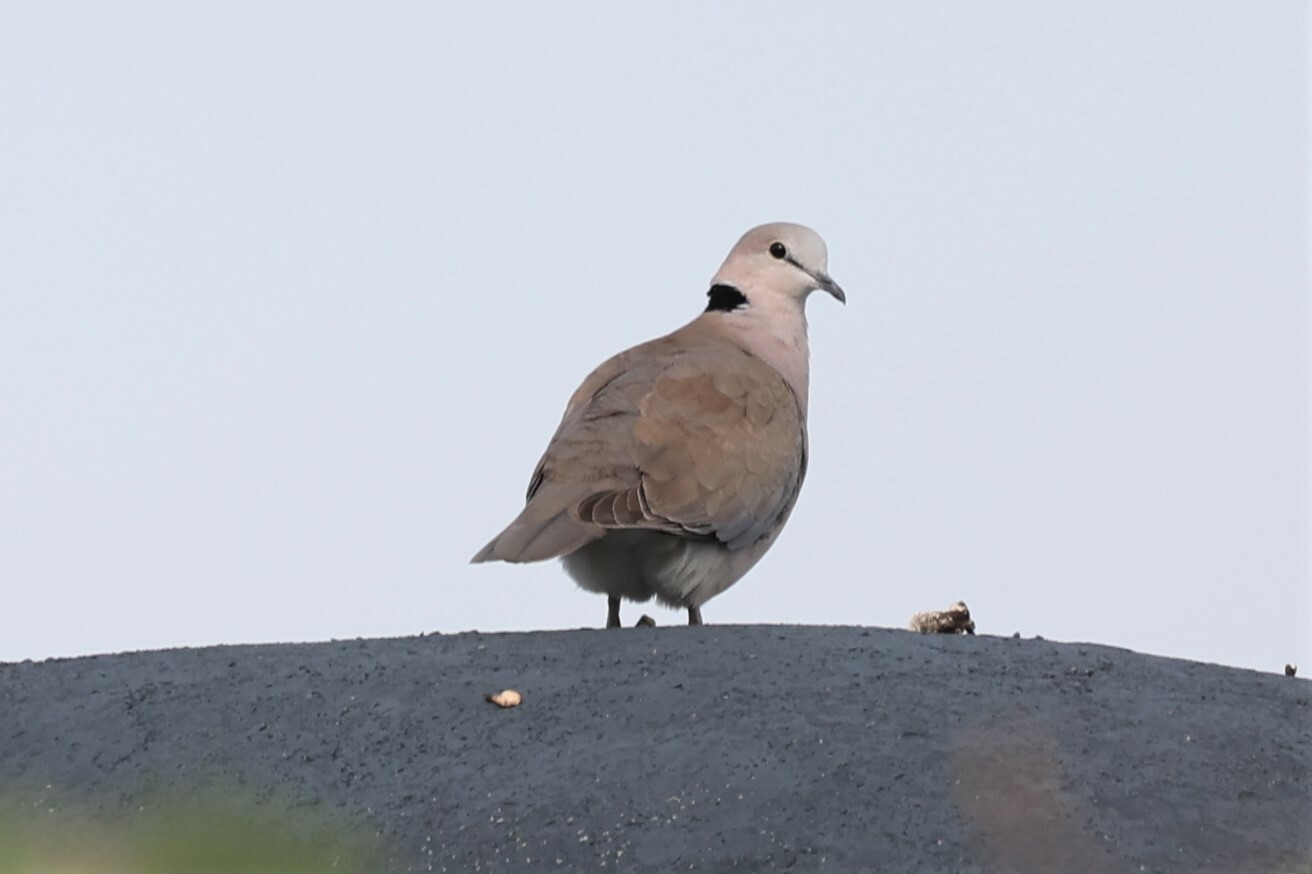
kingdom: Animalia
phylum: Chordata
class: Aves
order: Columbiformes
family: Columbidae
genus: Streptopelia
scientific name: Streptopelia capicola
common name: Ring-necked dove
